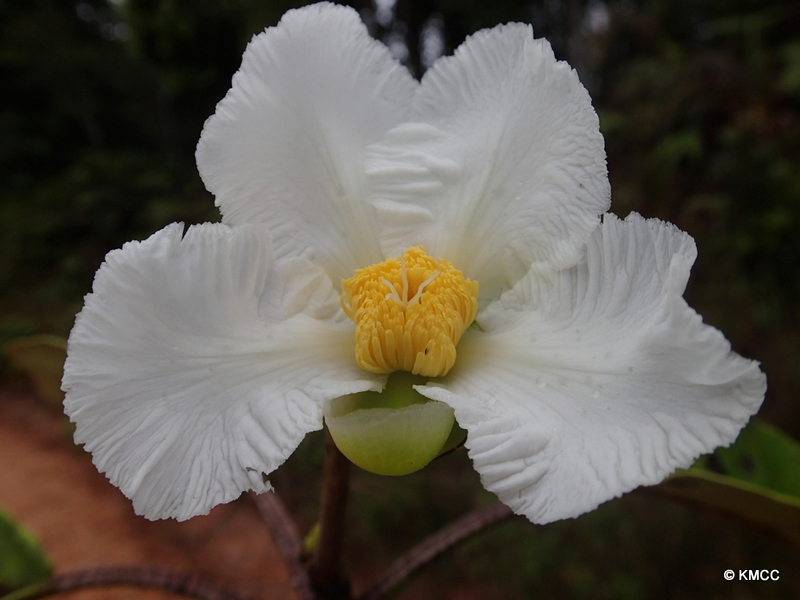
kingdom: Plantae
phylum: Tracheophyta
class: Magnoliopsida
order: Dilleniales
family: Dilleniaceae
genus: Dillenia
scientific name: Dillenia triquetra
